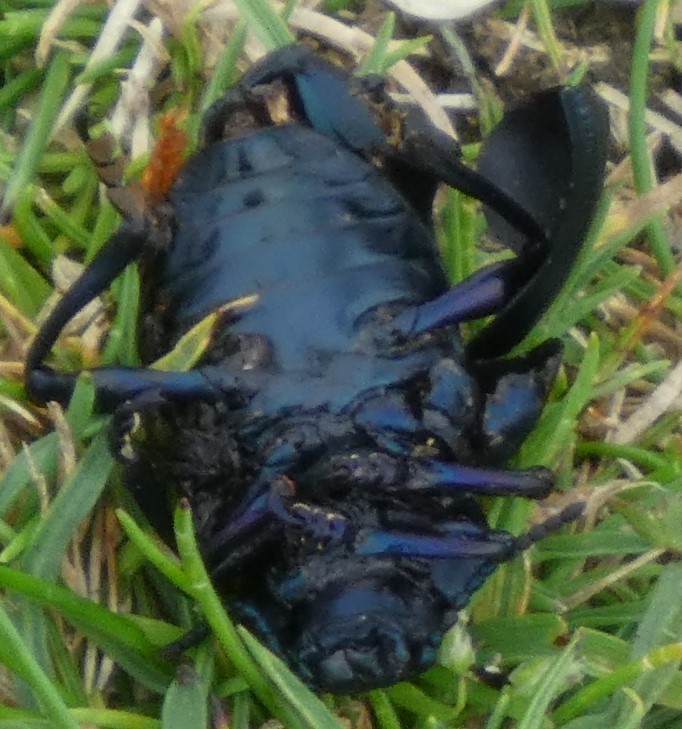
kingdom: Animalia
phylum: Arthropoda
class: Insecta
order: Coleoptera
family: Chrysomelidae
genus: Timarcha
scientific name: Timarcha tenebricosa
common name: Bloody-nosed beetle
